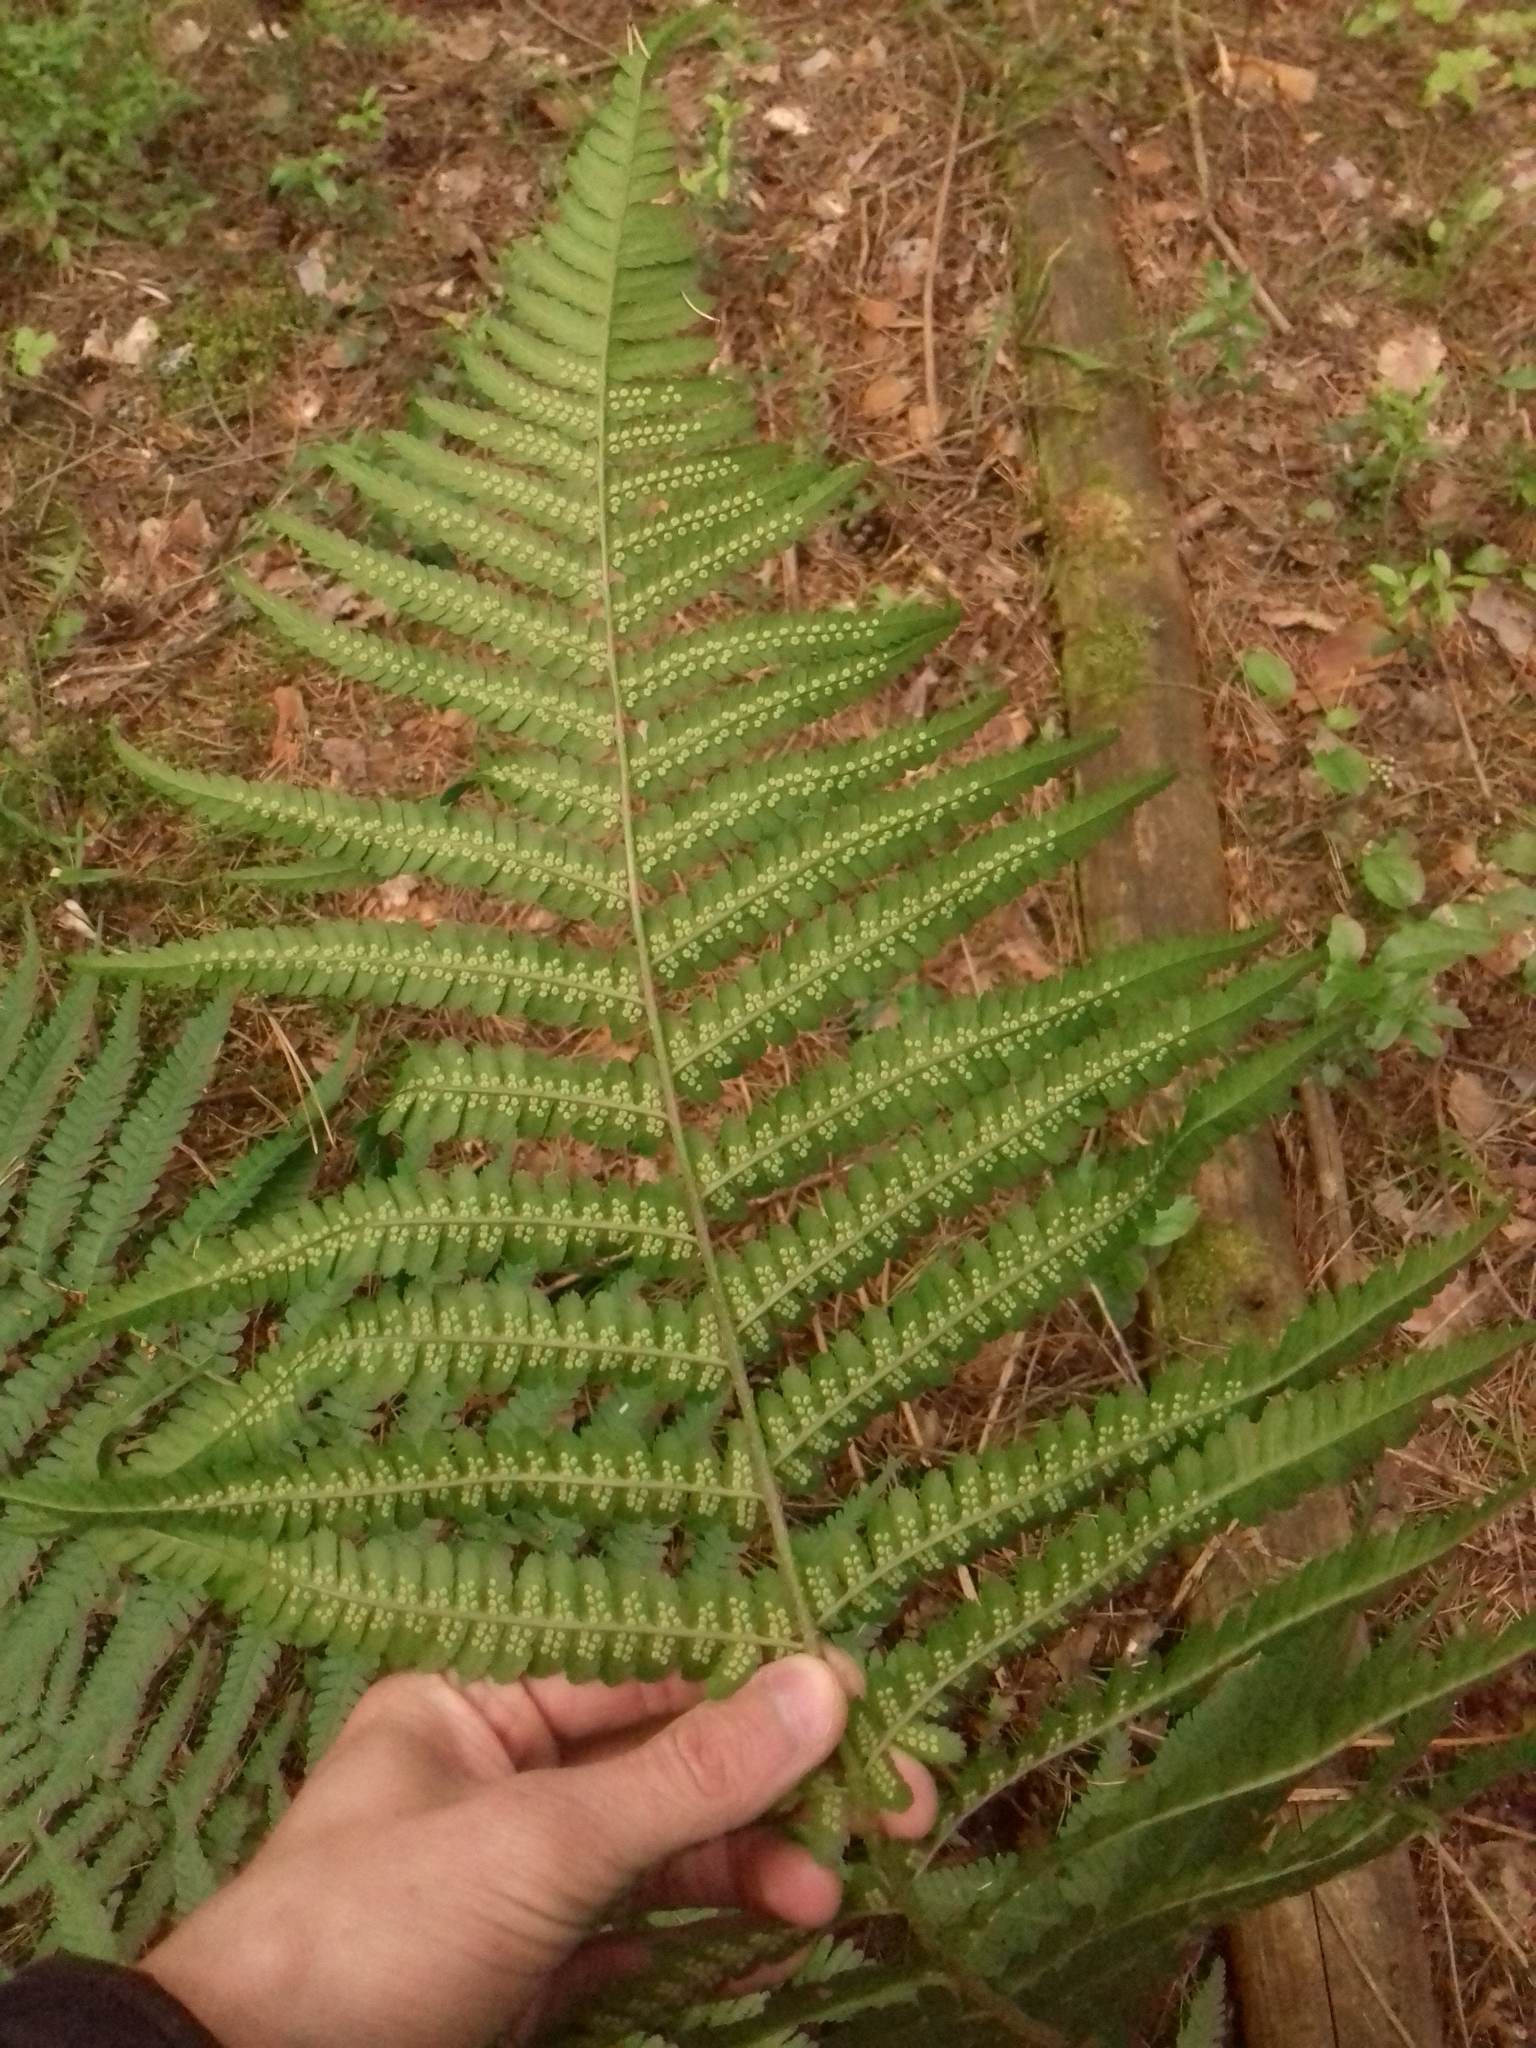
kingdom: Plantae
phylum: Tracheophyta
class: Polypodiopsida
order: Polypodiales
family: Dryopteridaceae
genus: Dryopteris
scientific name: Dryopteris filix-mas
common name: Male fern
